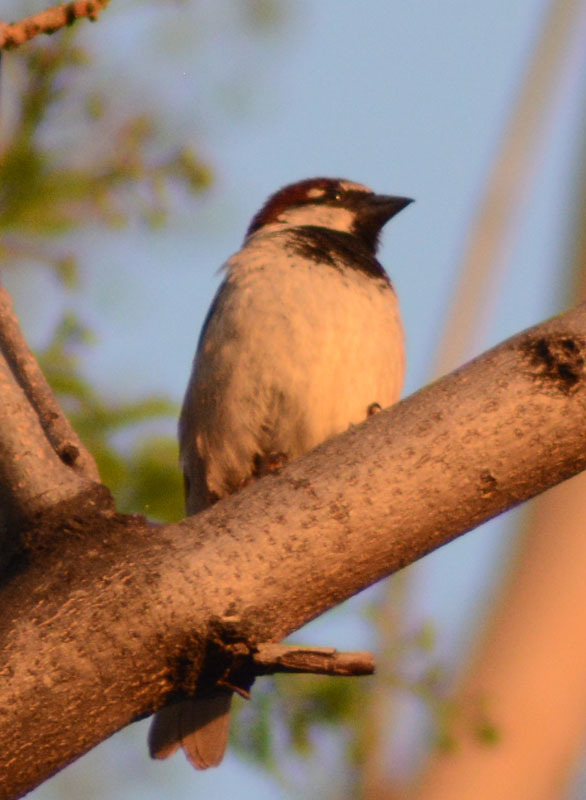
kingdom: Animalia
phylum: Chordata
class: Aves
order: Passeriformes
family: Passeridae
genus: Passer
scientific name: Passer domesticus
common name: House sparrow
